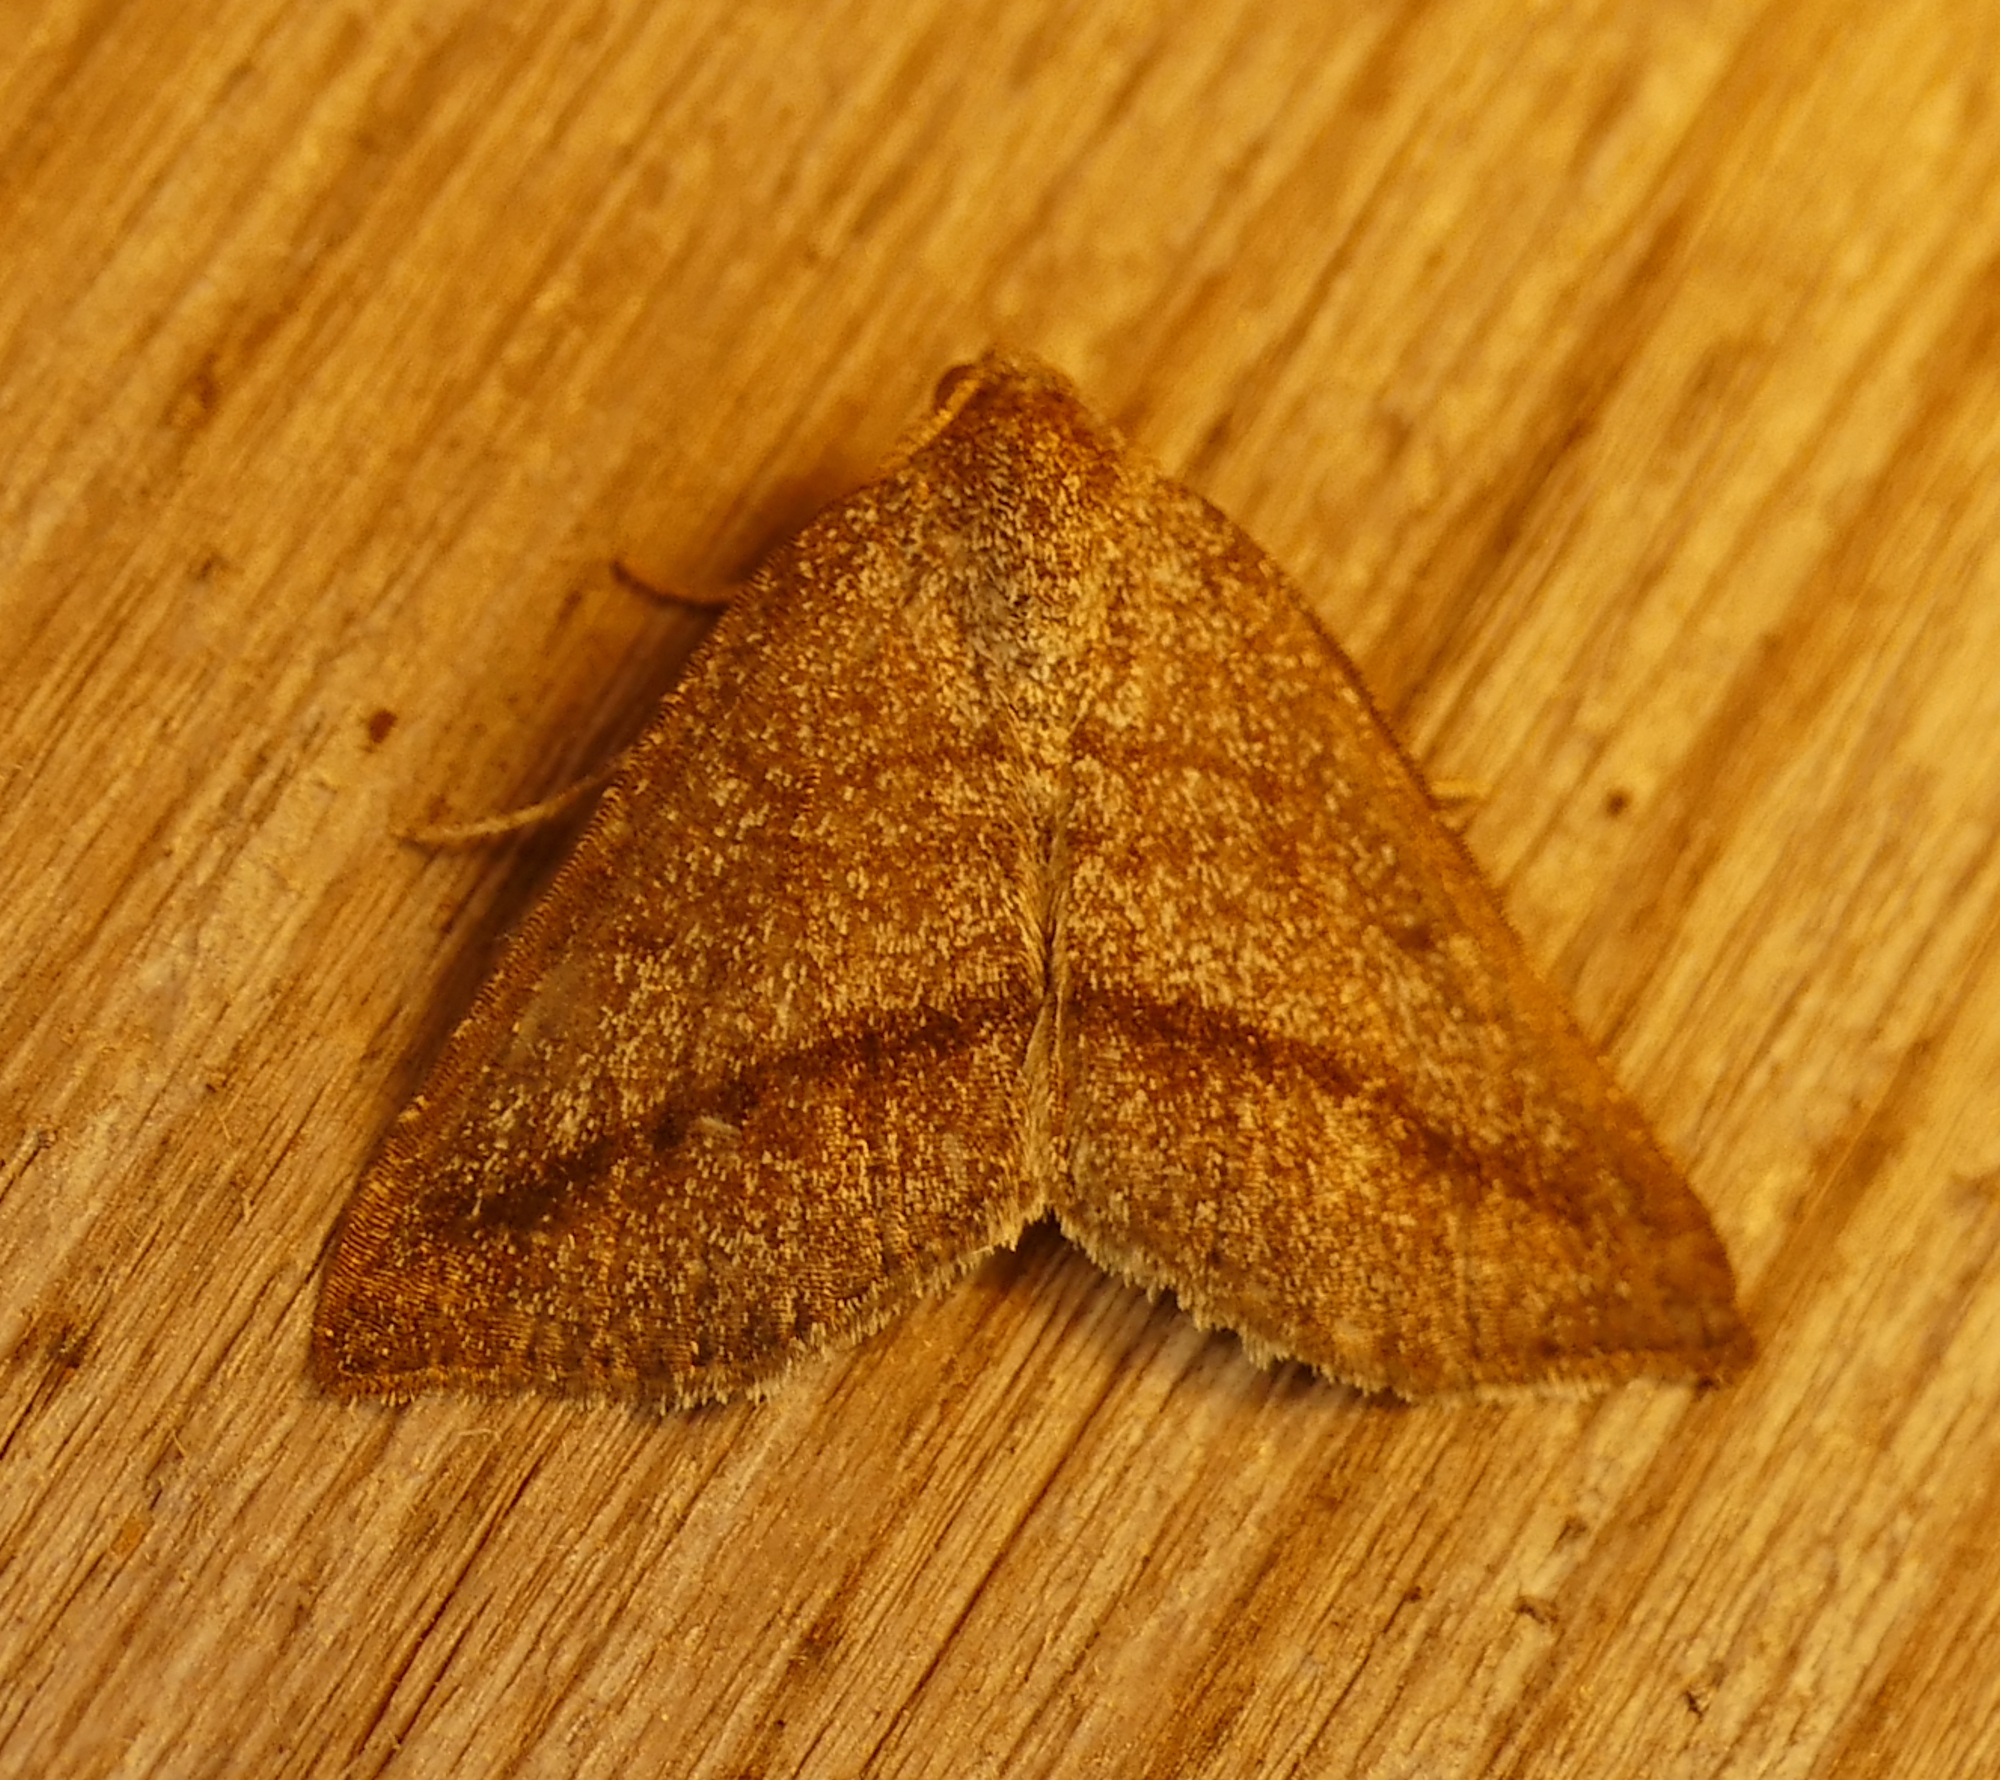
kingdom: Animalia
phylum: Arthropoda
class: Insecta
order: Lepidoptera
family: Geometridae
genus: Macaria
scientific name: Macaria varadaria
